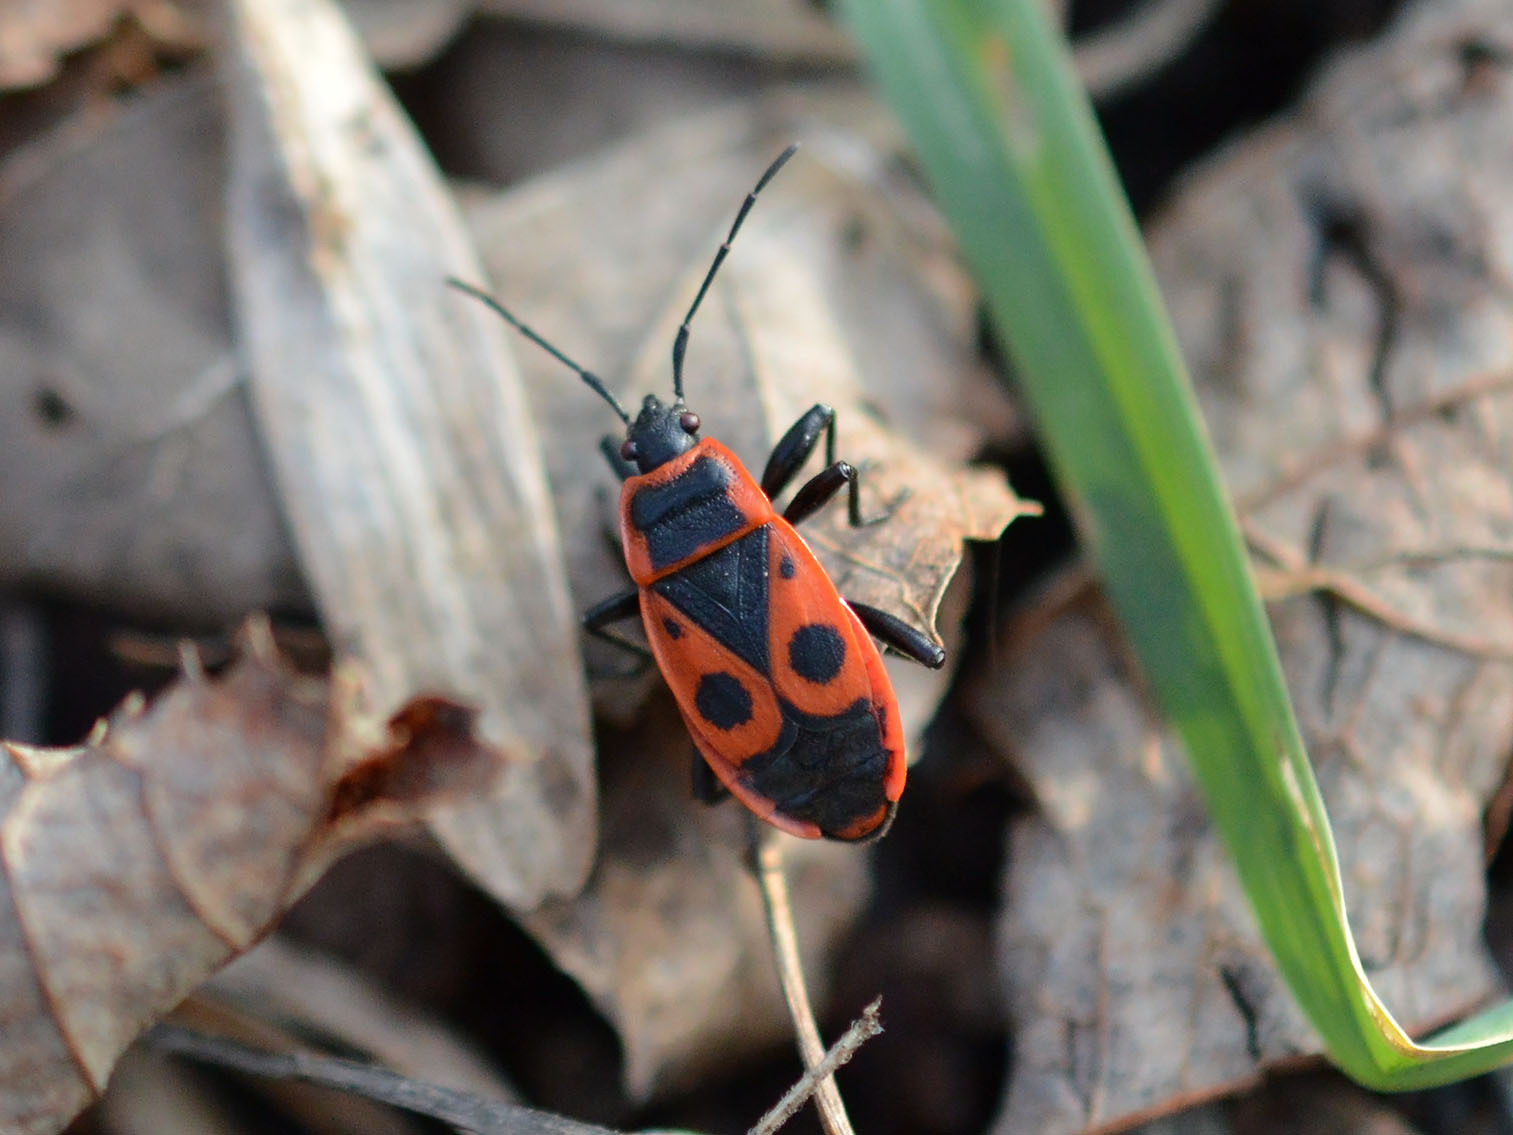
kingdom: Animalia
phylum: Arthropoda
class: Insecta
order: Hemiptera
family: Pyrrhocoridae
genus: Pyrrhocoris
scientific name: Pyrrhocoris apterus
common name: Firebug
